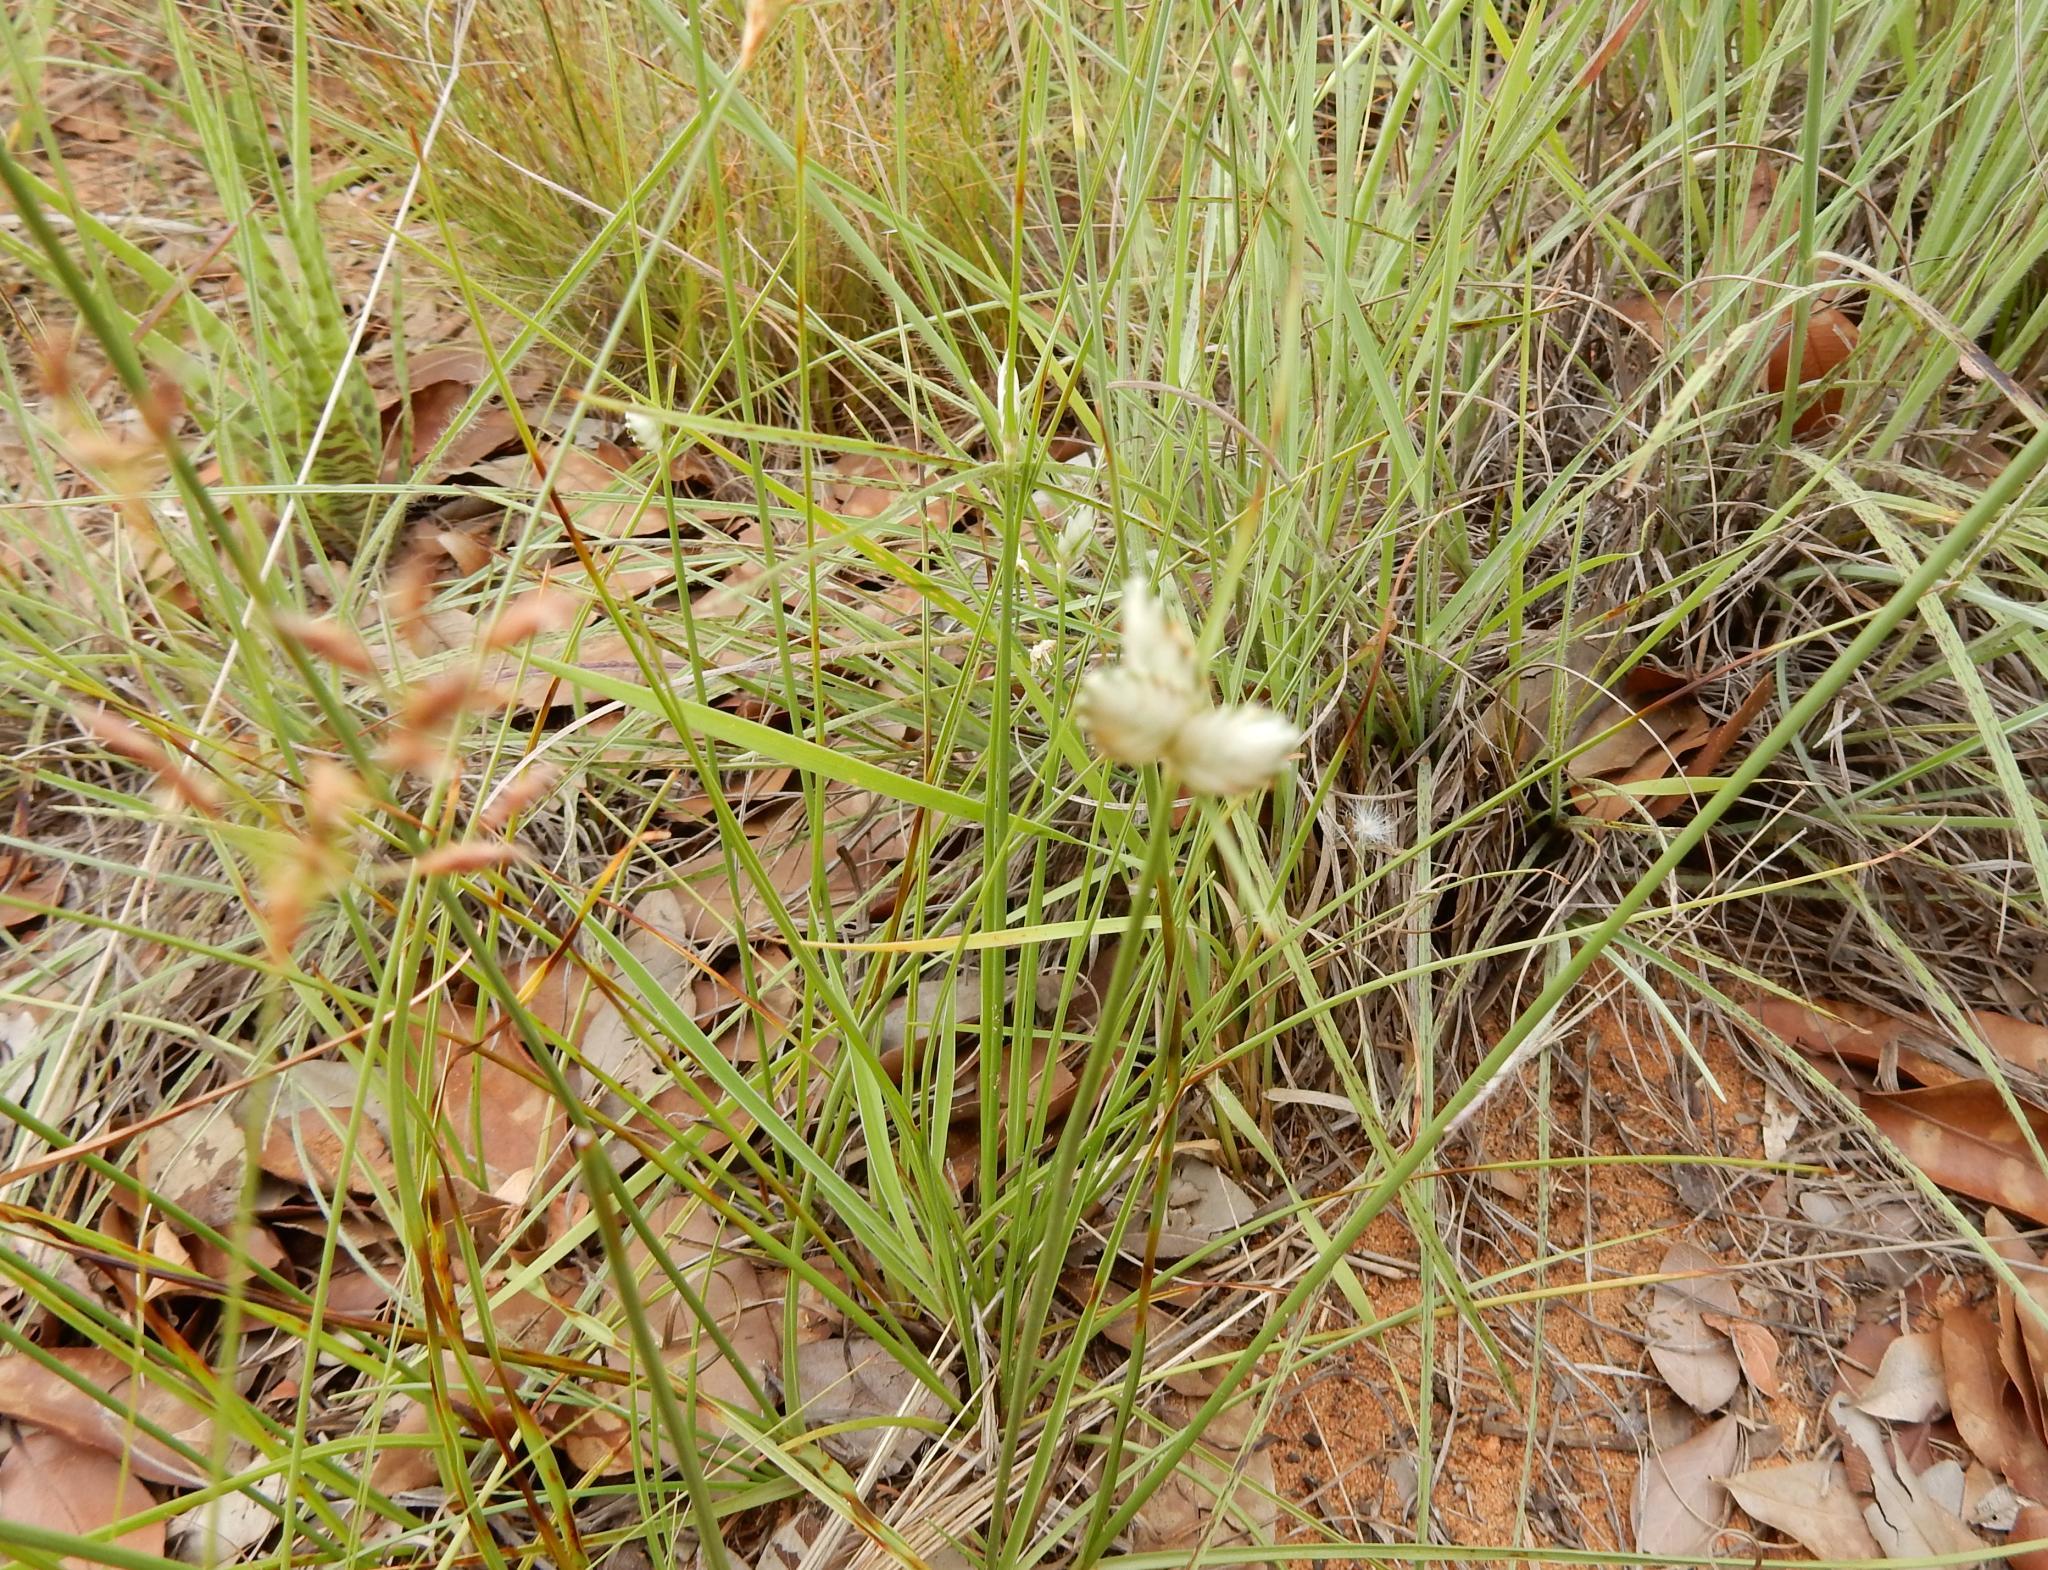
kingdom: Plantae
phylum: Tracheophyta
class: Liliopsida
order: Poales
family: Cyperaceae
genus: Cyperus
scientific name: Cyperus margaritaceus
